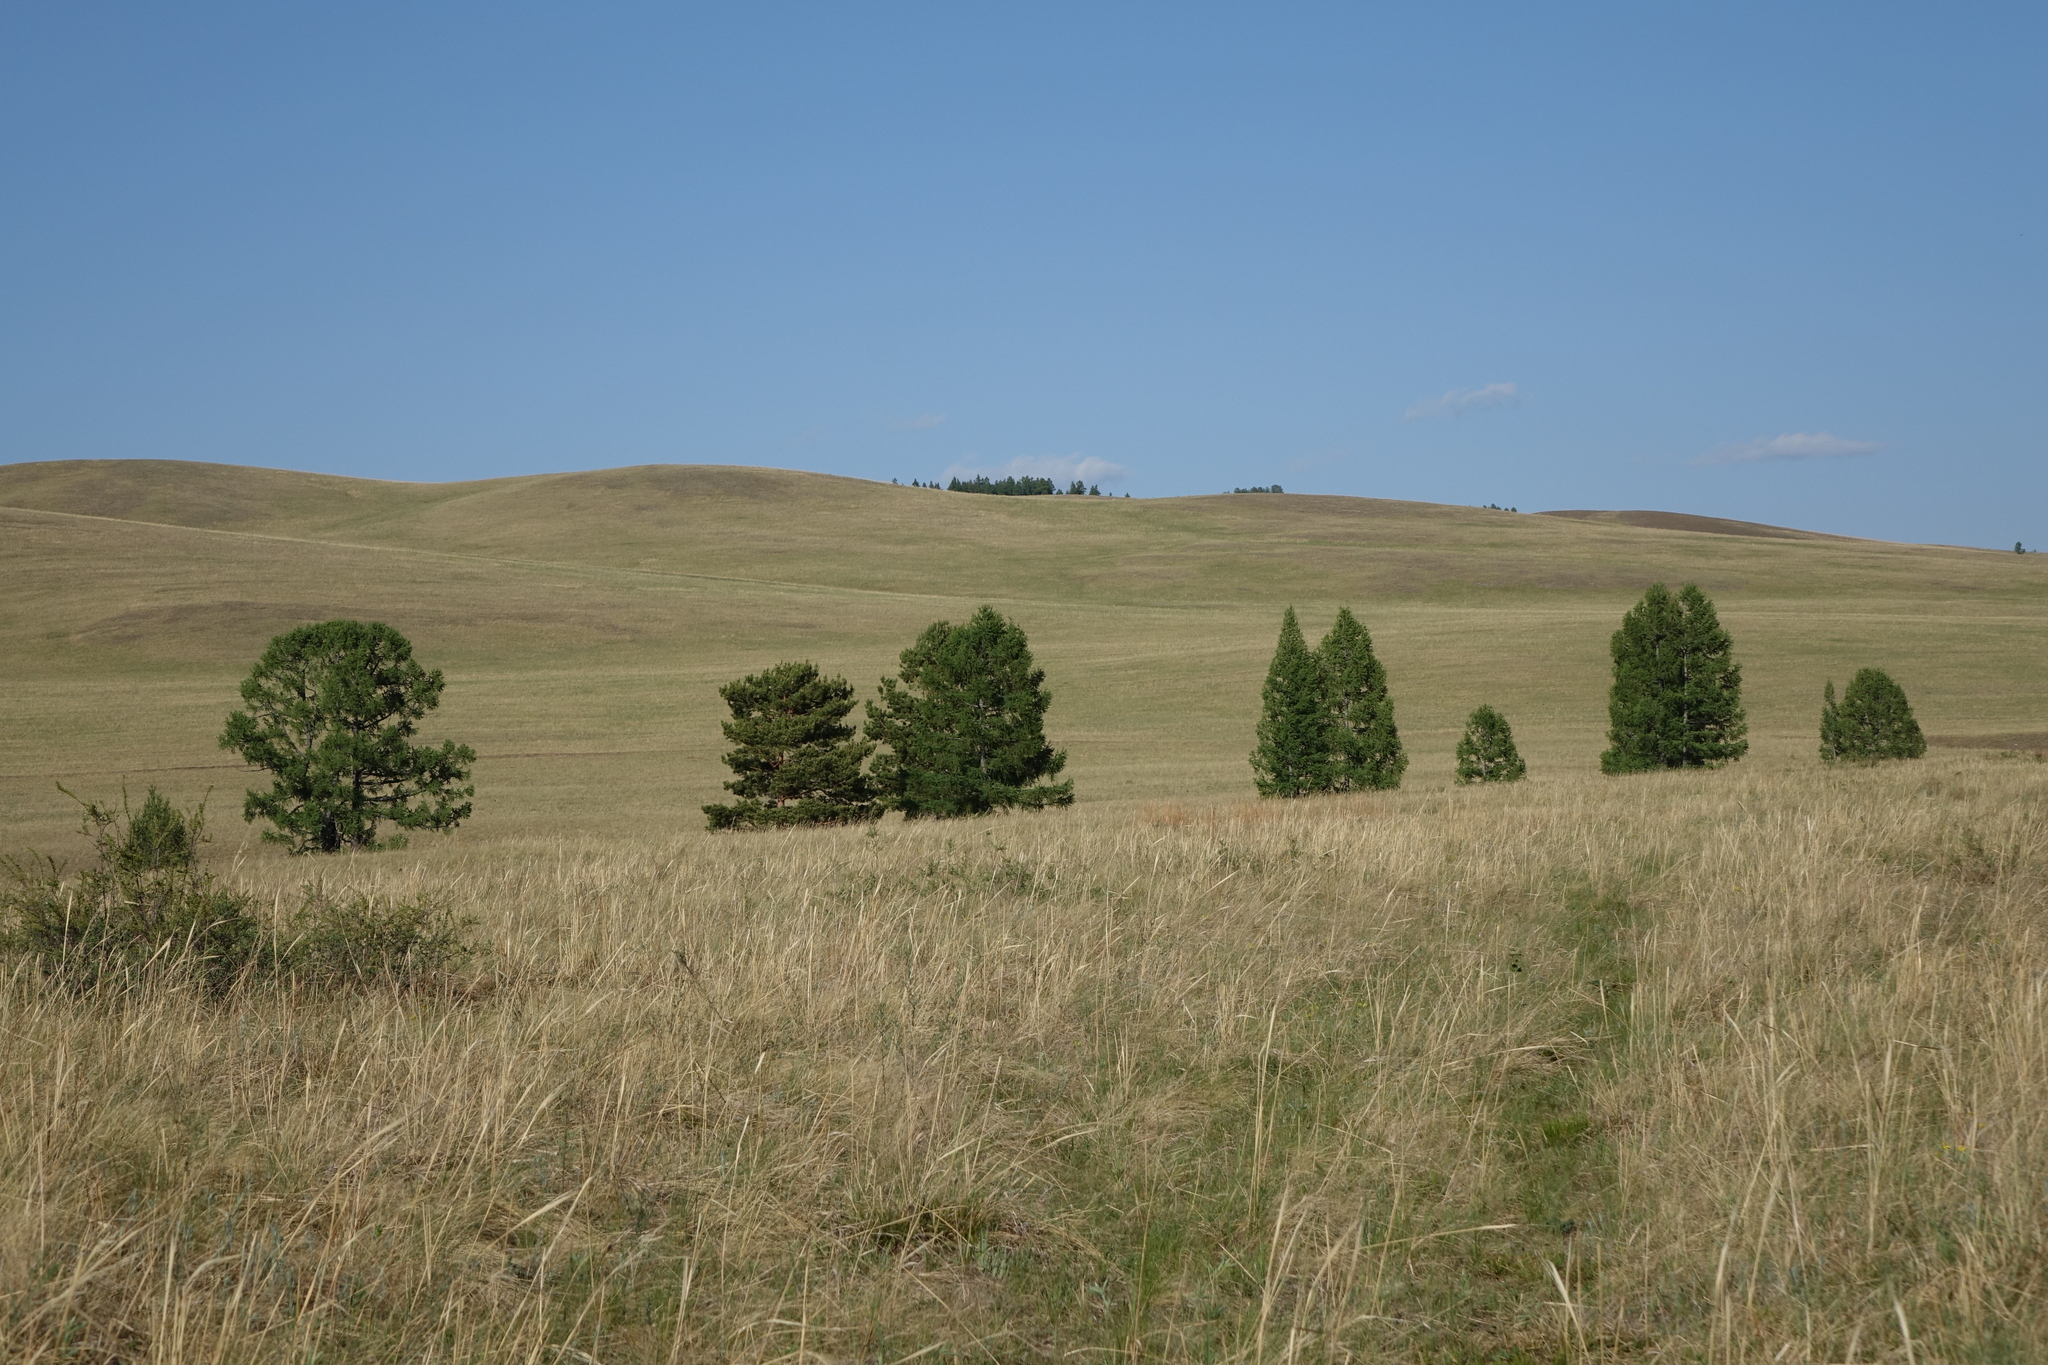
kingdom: Plantae
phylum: Tracheophyta
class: Pinopsida
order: Pinales
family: Pinaceae
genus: Larix
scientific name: Larix sibirica
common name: Siberian larch
